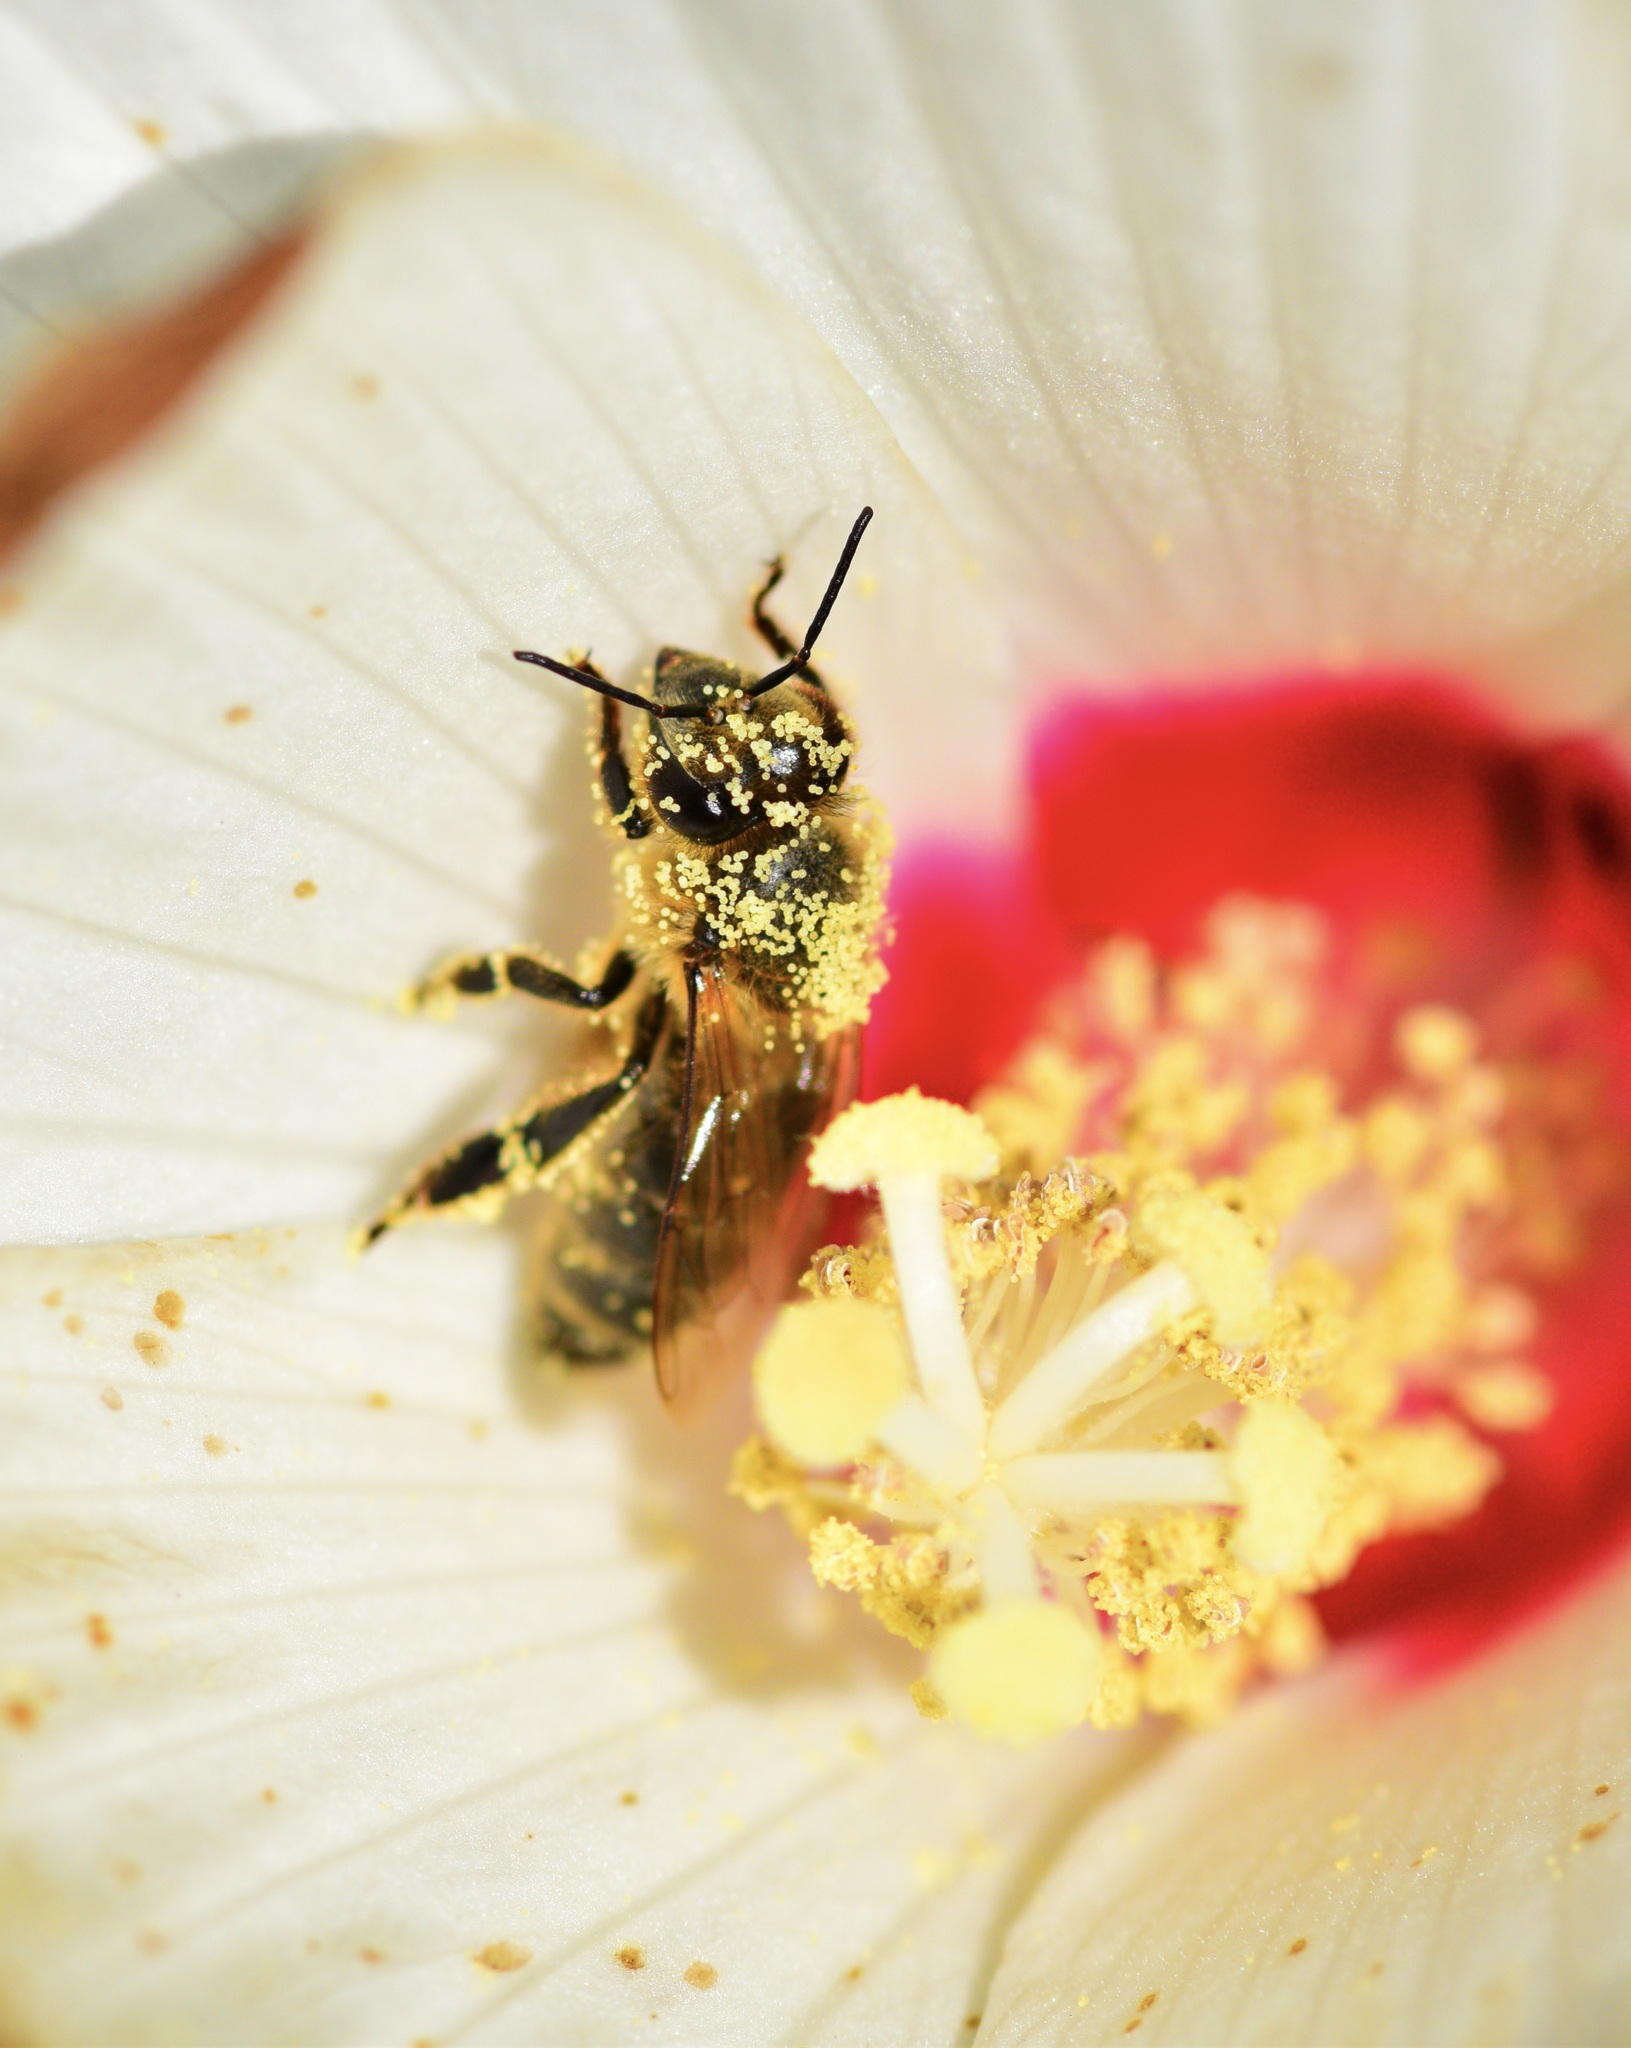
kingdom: Animalia
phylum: Arthropoda
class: Insecta
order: Hymenoptera
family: Apidae
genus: Apis
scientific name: Apis mellifera
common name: Honey bee
